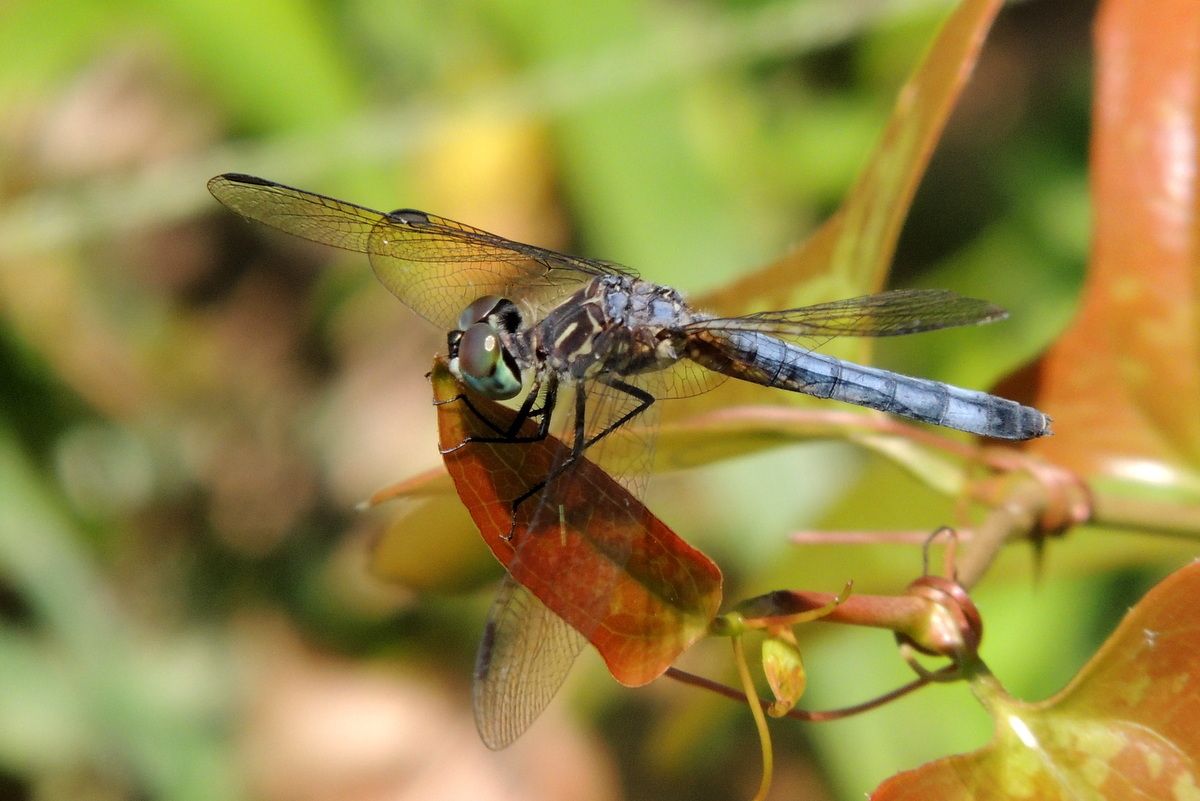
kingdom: Animalia
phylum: Arthropoda
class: Insecta
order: Odonata
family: Libellulidae
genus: Pachydiplax
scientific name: Pachydiplax longipennis
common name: Blue dasher
